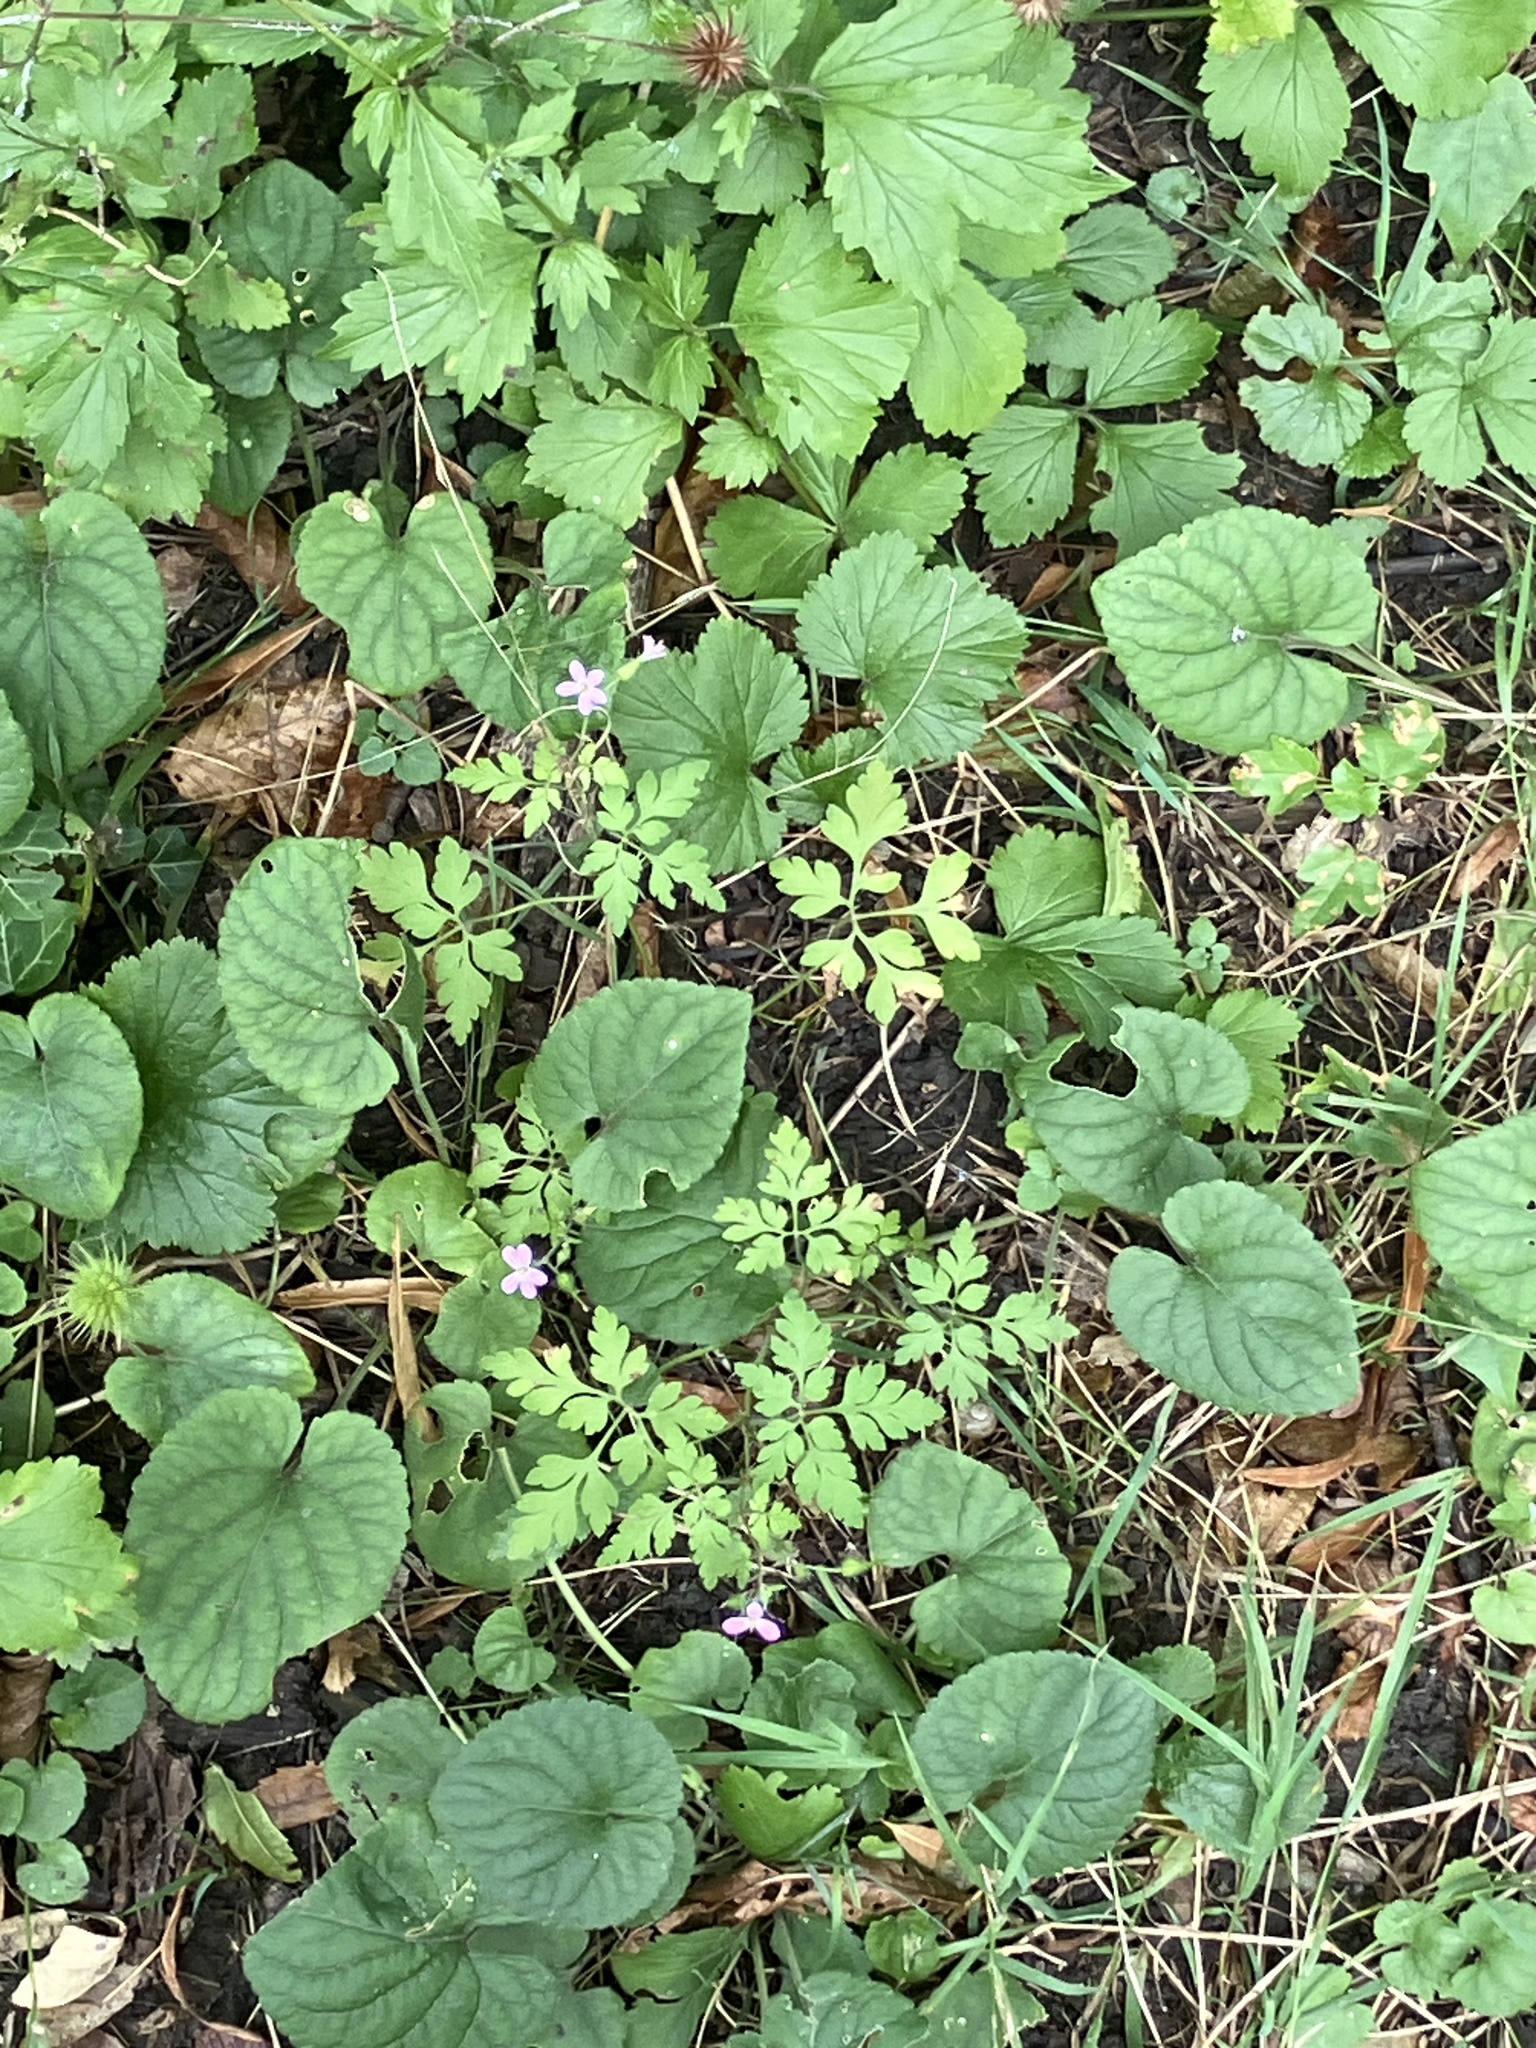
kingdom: Plantae
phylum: Tracheophyta
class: Magnoliopsida
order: Geraniales
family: Geraniaceae
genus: Geranium
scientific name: Geranium robertianum
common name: Herb-robert
